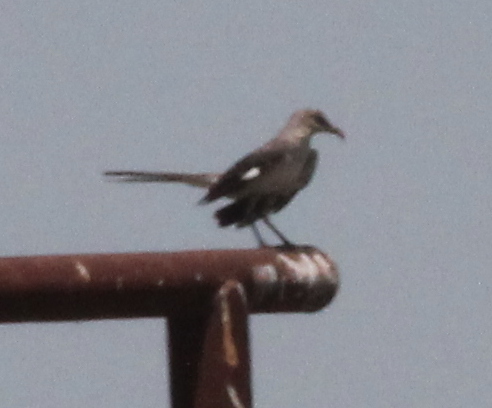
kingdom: Animalia
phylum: Chordata
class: Aves
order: Passeriformes
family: Mimidae
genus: Mimus
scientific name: Mimus polyglottos
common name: Northern mockingbird
